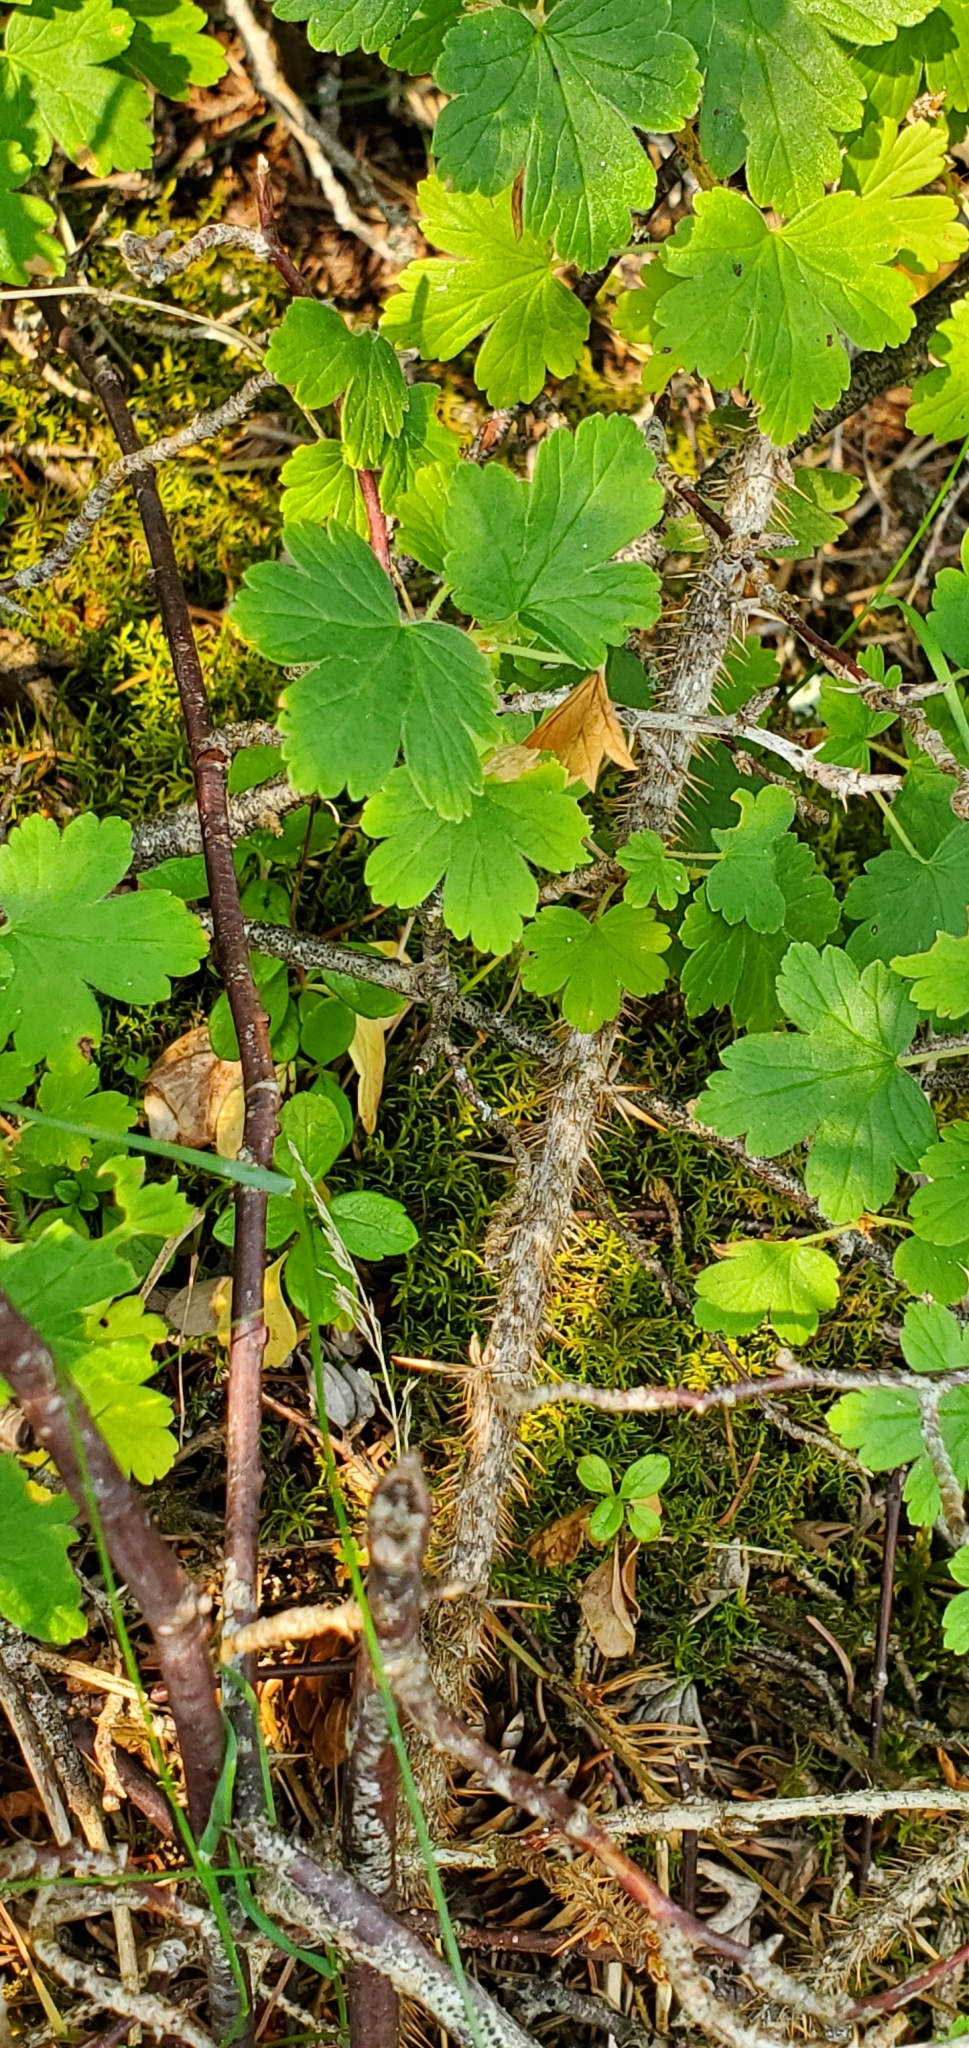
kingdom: Plantae
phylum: Tracheophyta
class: Magnoliopsida
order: Saxifragales
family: Grossulariaceae
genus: Ribes
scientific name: Ribes oxyacanthoides
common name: Northern gooseberry
